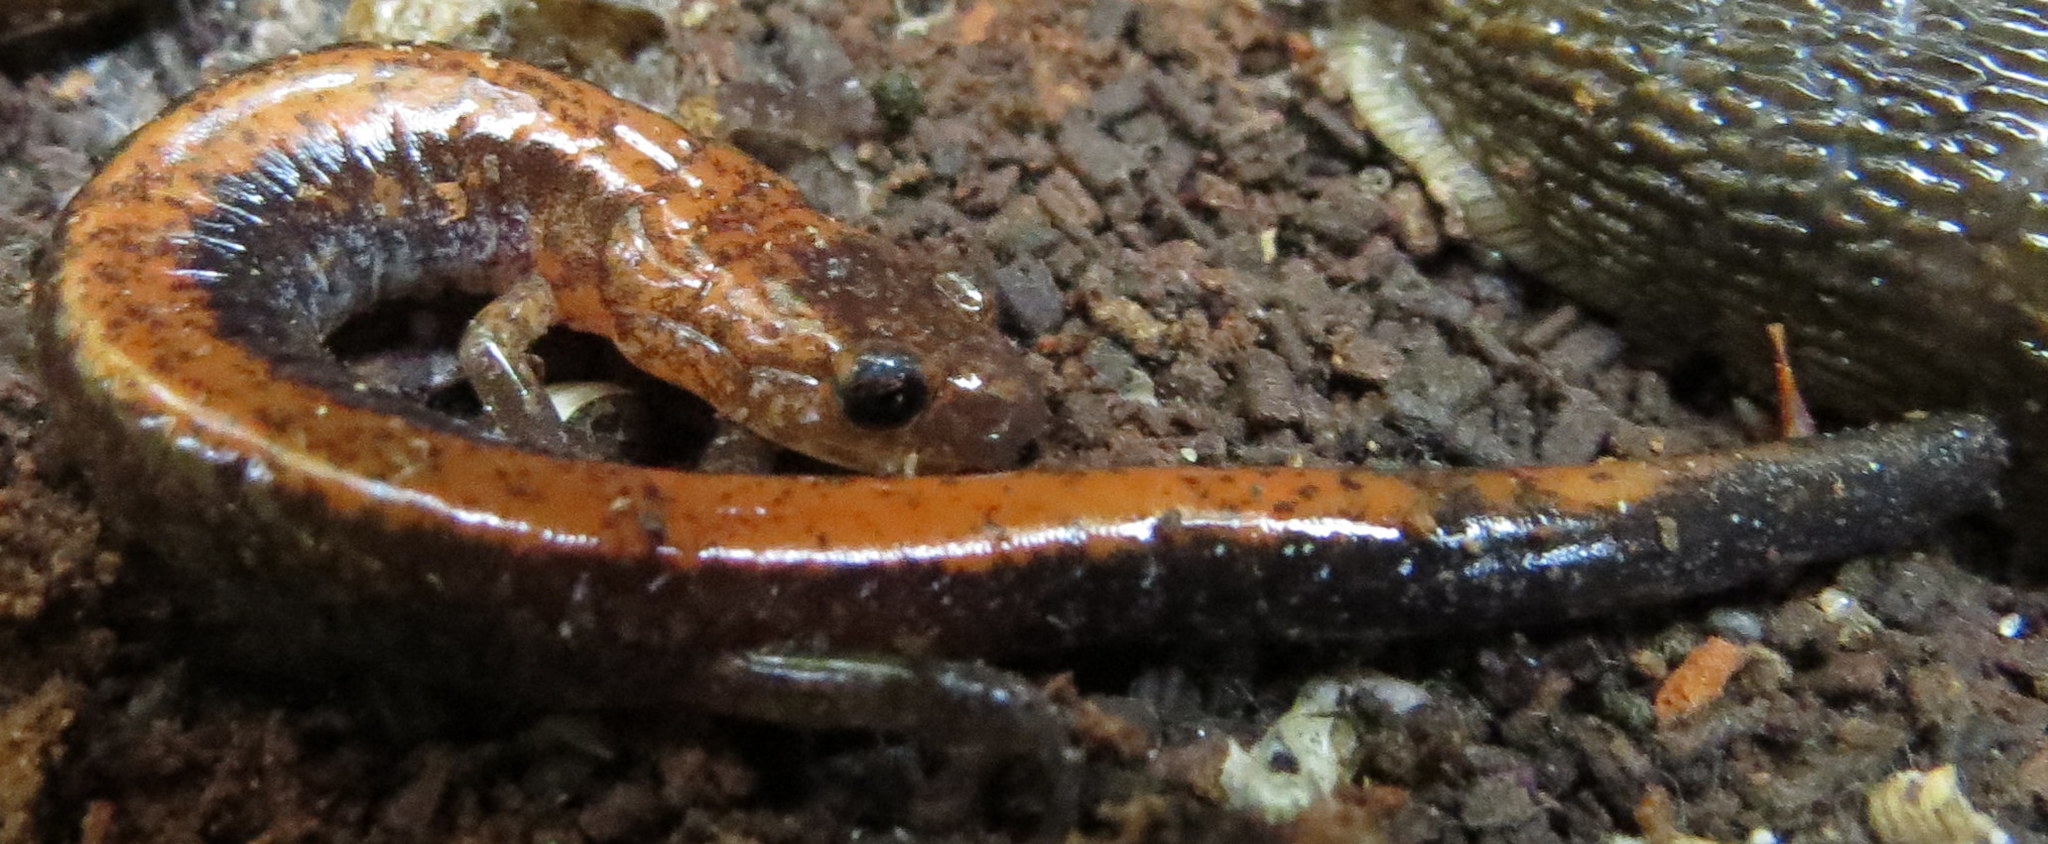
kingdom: Animalia
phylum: Chordata
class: Amphibia
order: Caudata
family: Plethodontidae
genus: Plethodon
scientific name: Plethodon cinereus
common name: Redback salamander
